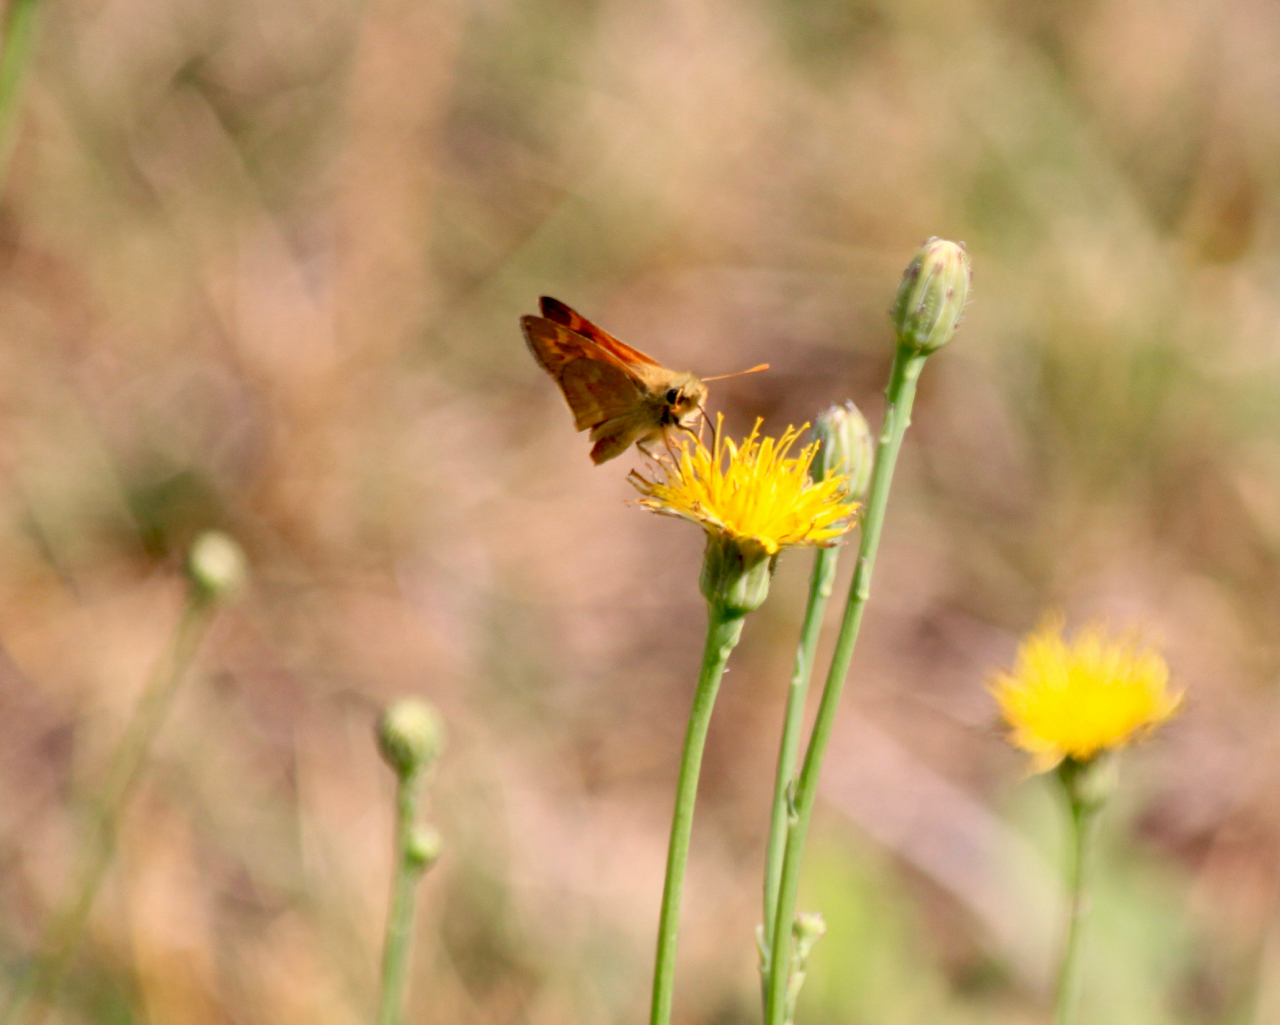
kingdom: Animalia
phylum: Arthropoda
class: Insecta
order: Lepidoptera
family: Hesperiidae
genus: Ochlodes
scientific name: Ochlodes sylvanoides
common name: Woodland skipper
